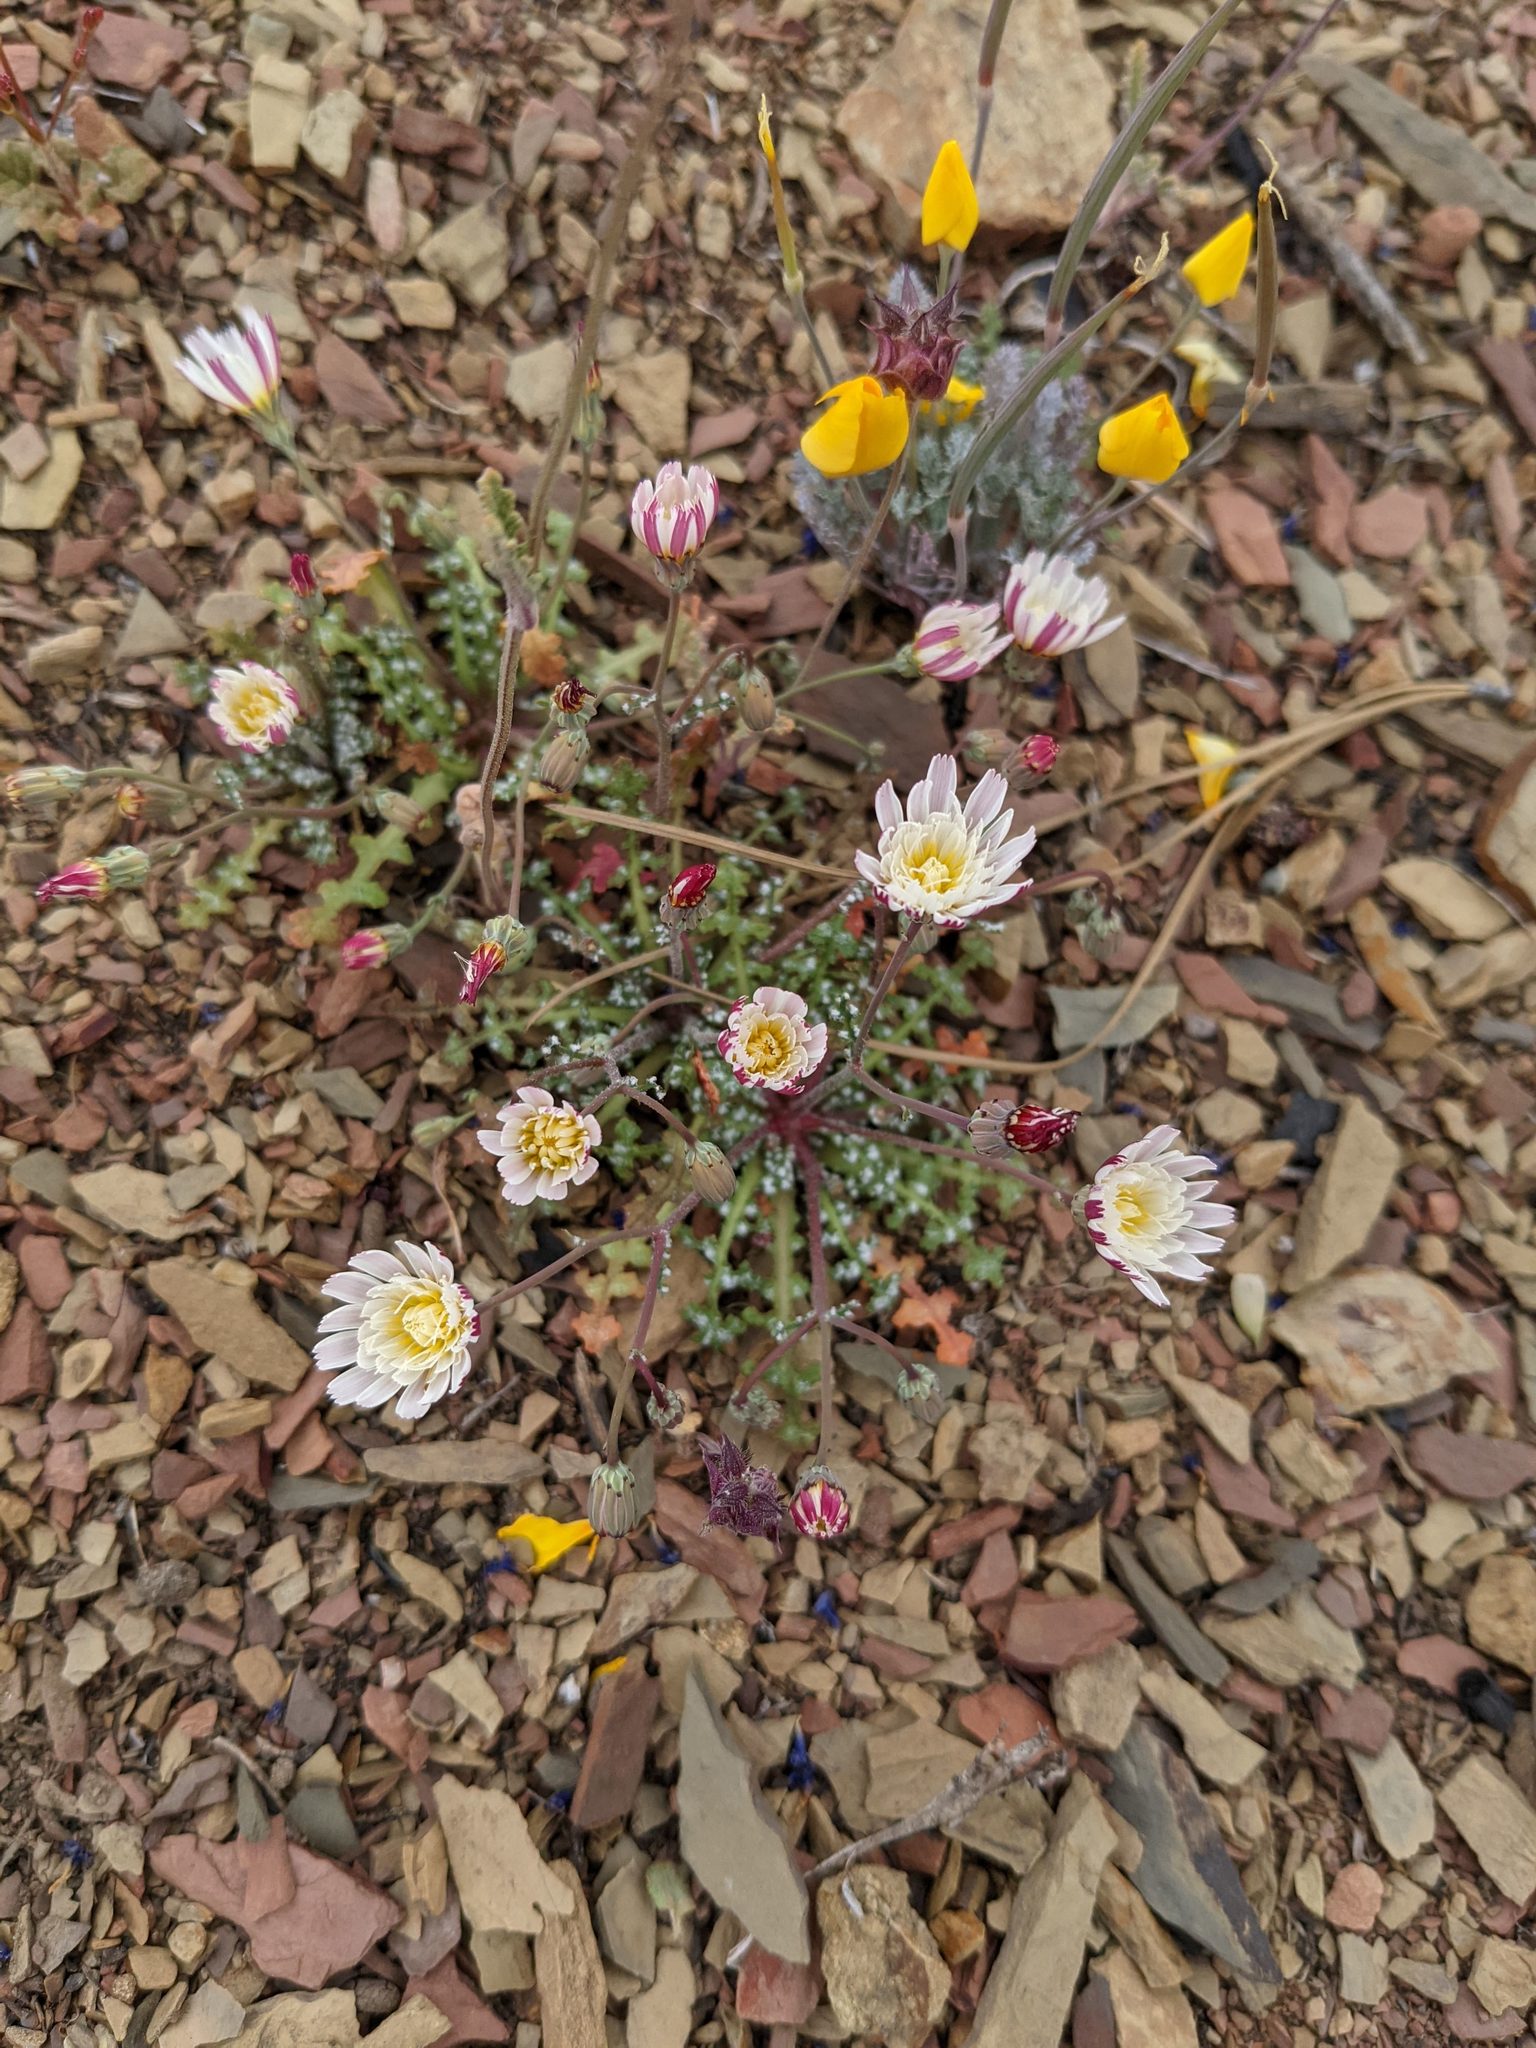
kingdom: Plantae
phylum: Tracheophyta
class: Magnoliopsida
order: Asterales
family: Asteraceae
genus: Malacothrix
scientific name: Malacothrix floccifera
